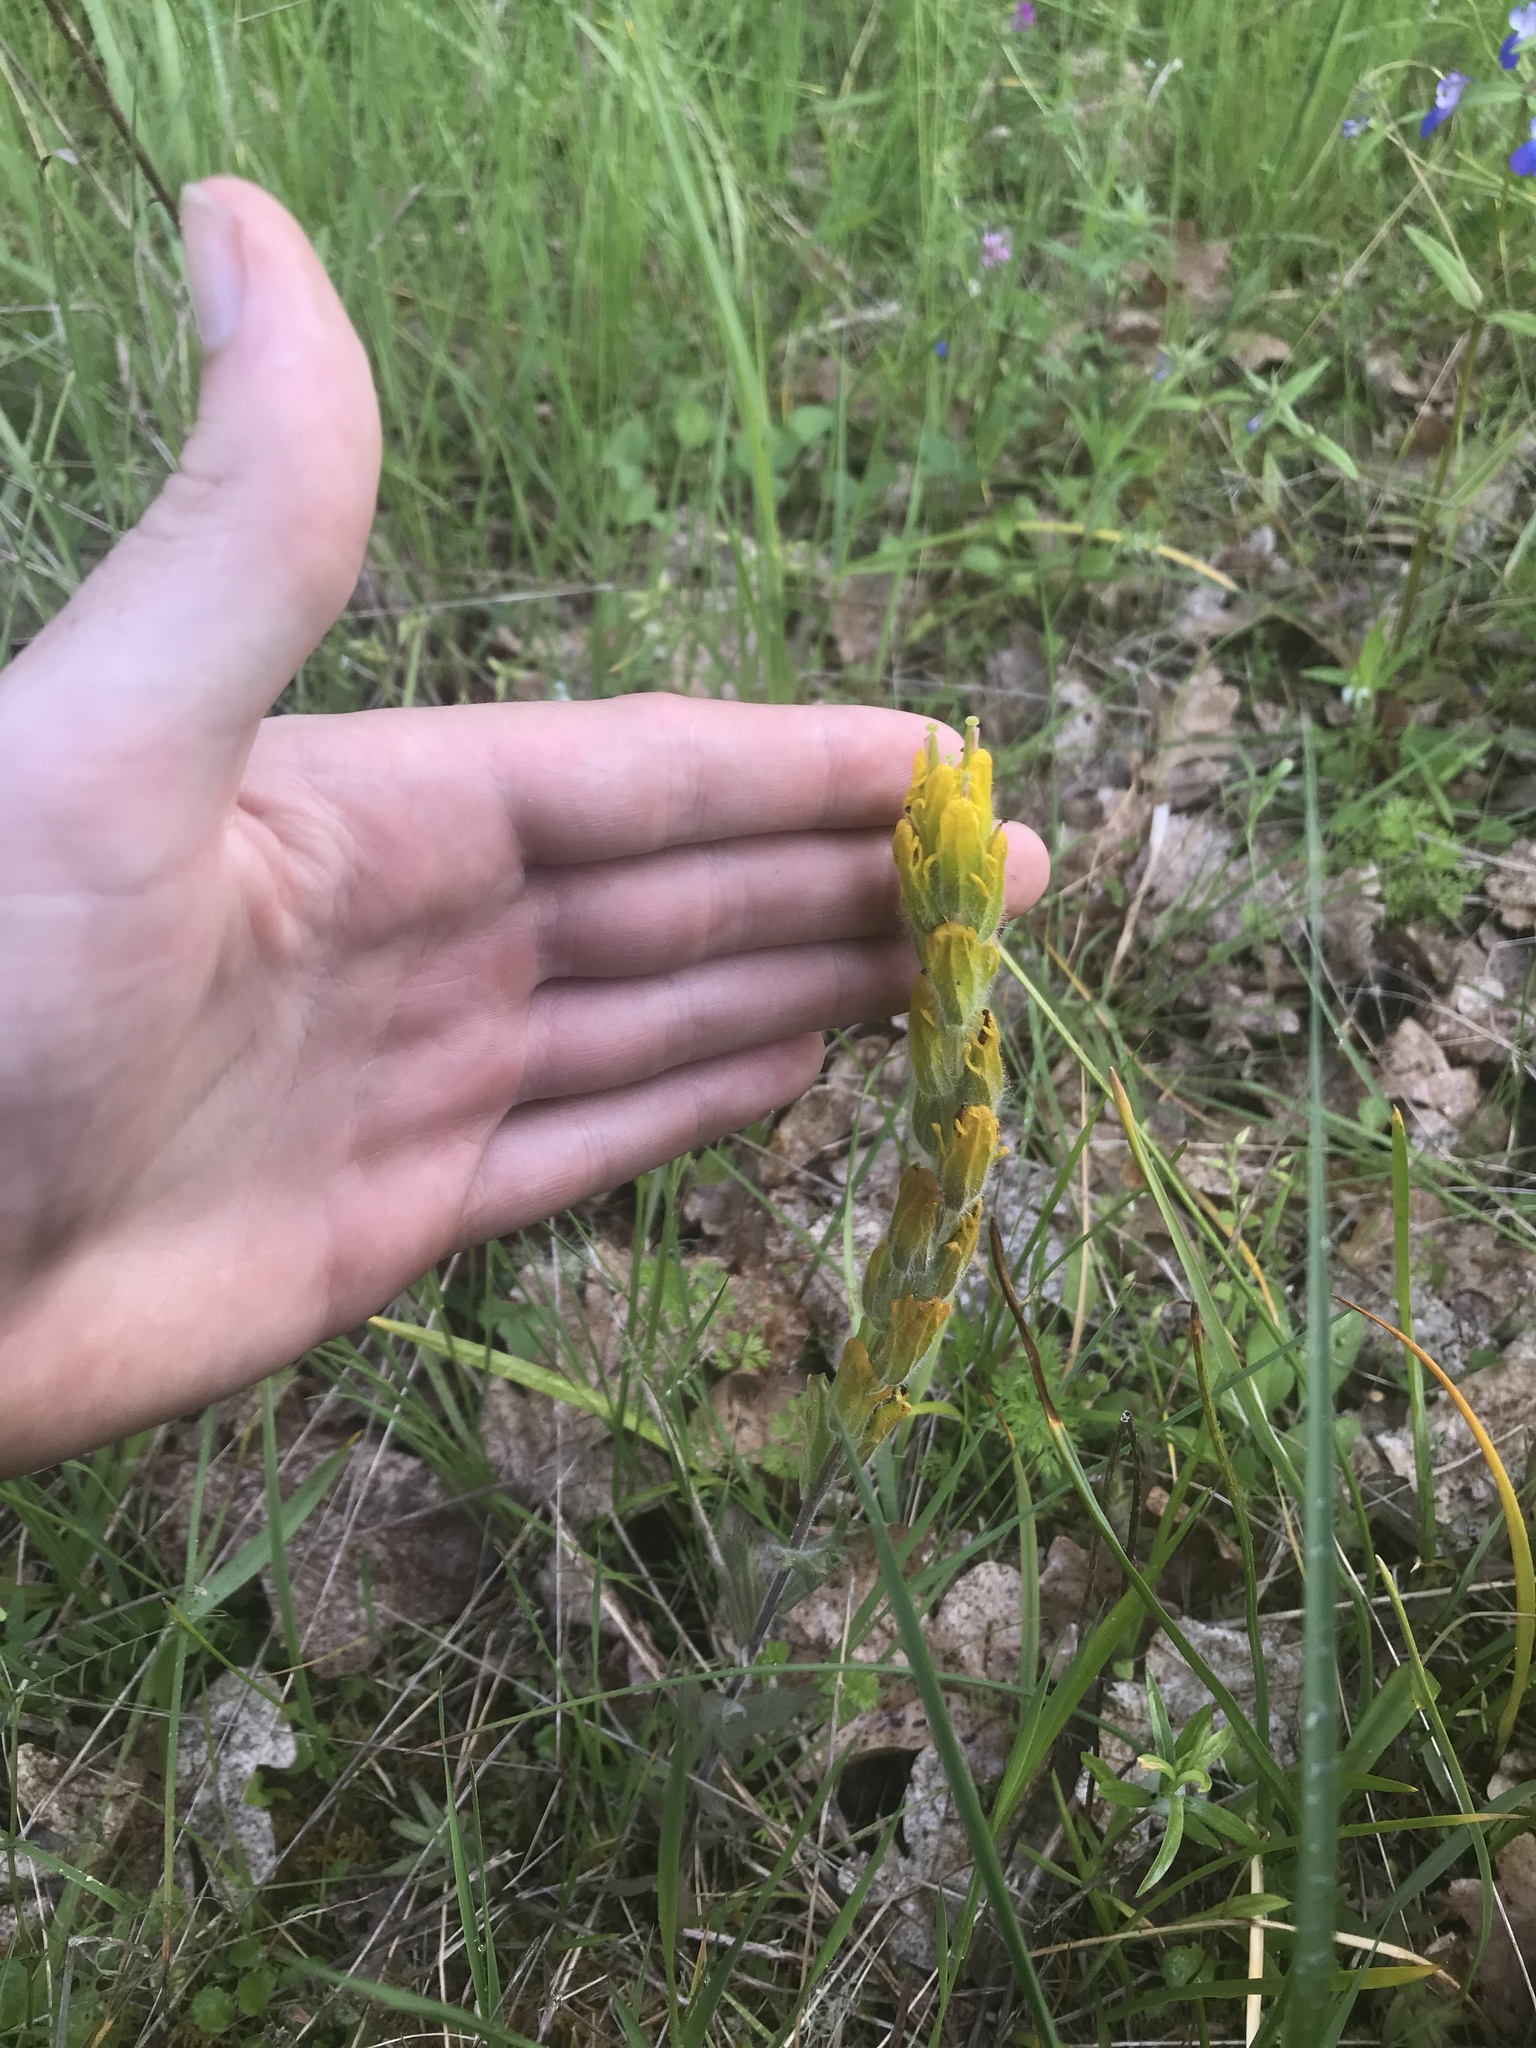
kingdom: Plantae
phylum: Tracheophyta
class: Magnoliopsida
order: Lamiales
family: Orobanchaceae
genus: Castilleja
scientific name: Castilleja levisecta
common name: Golden paintbrush
